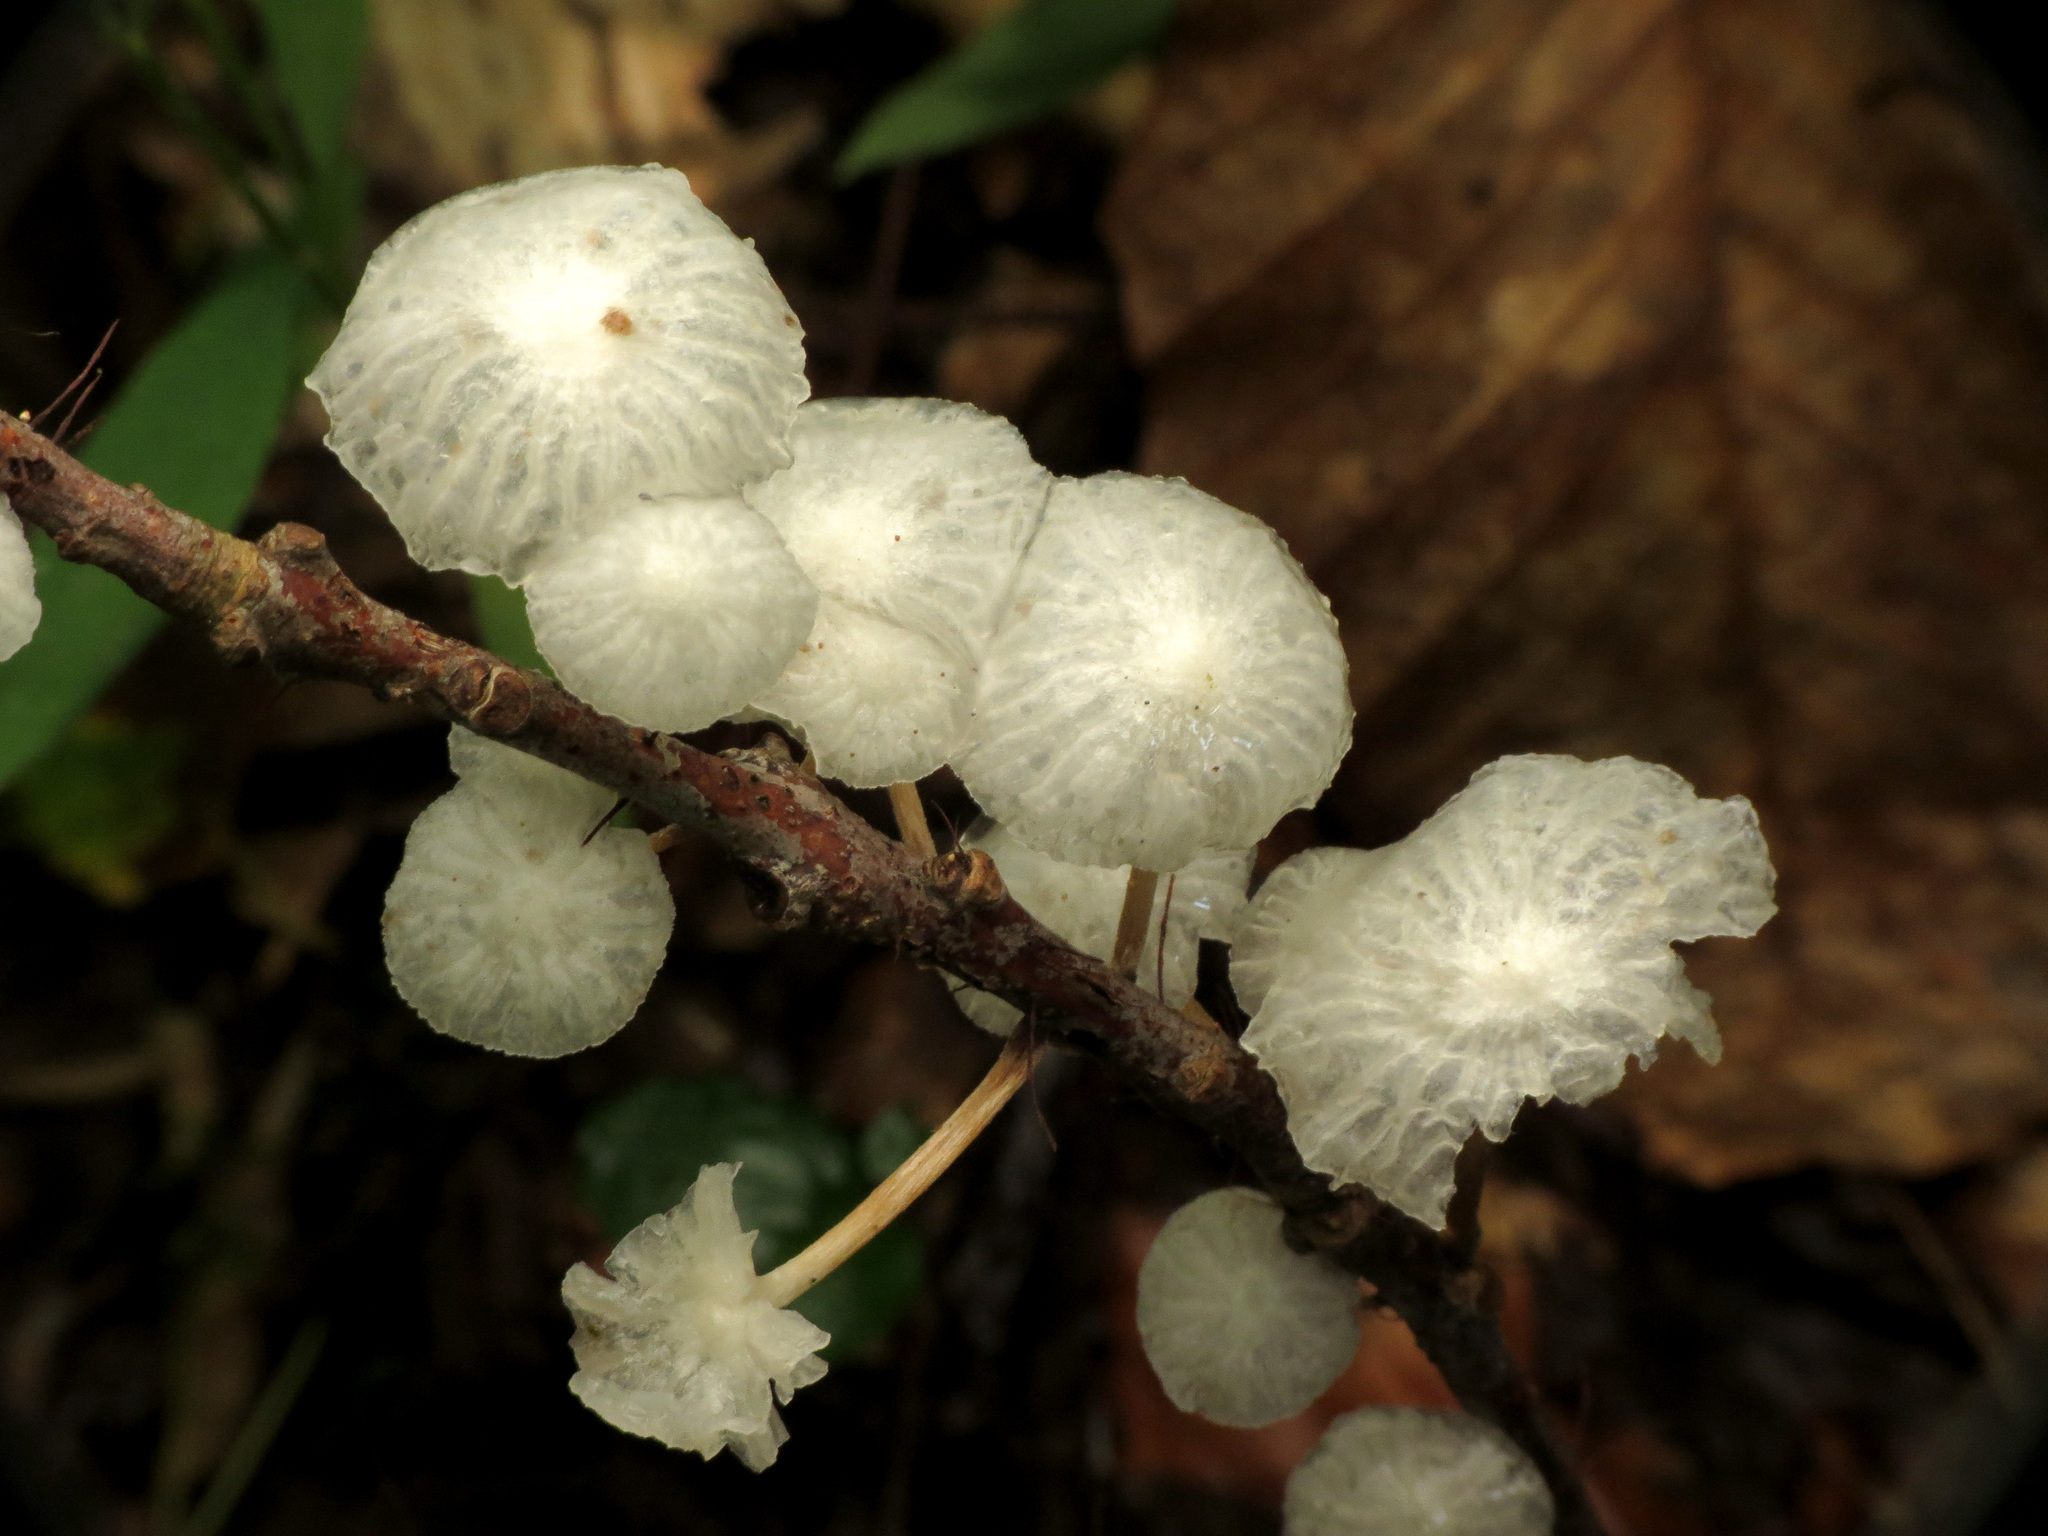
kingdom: Fungi
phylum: Basidiomycota
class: Agaricomycetes
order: Agaricales
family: Omphalotaceae
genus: Marasmiellus
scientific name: Marasmiellus candidus
